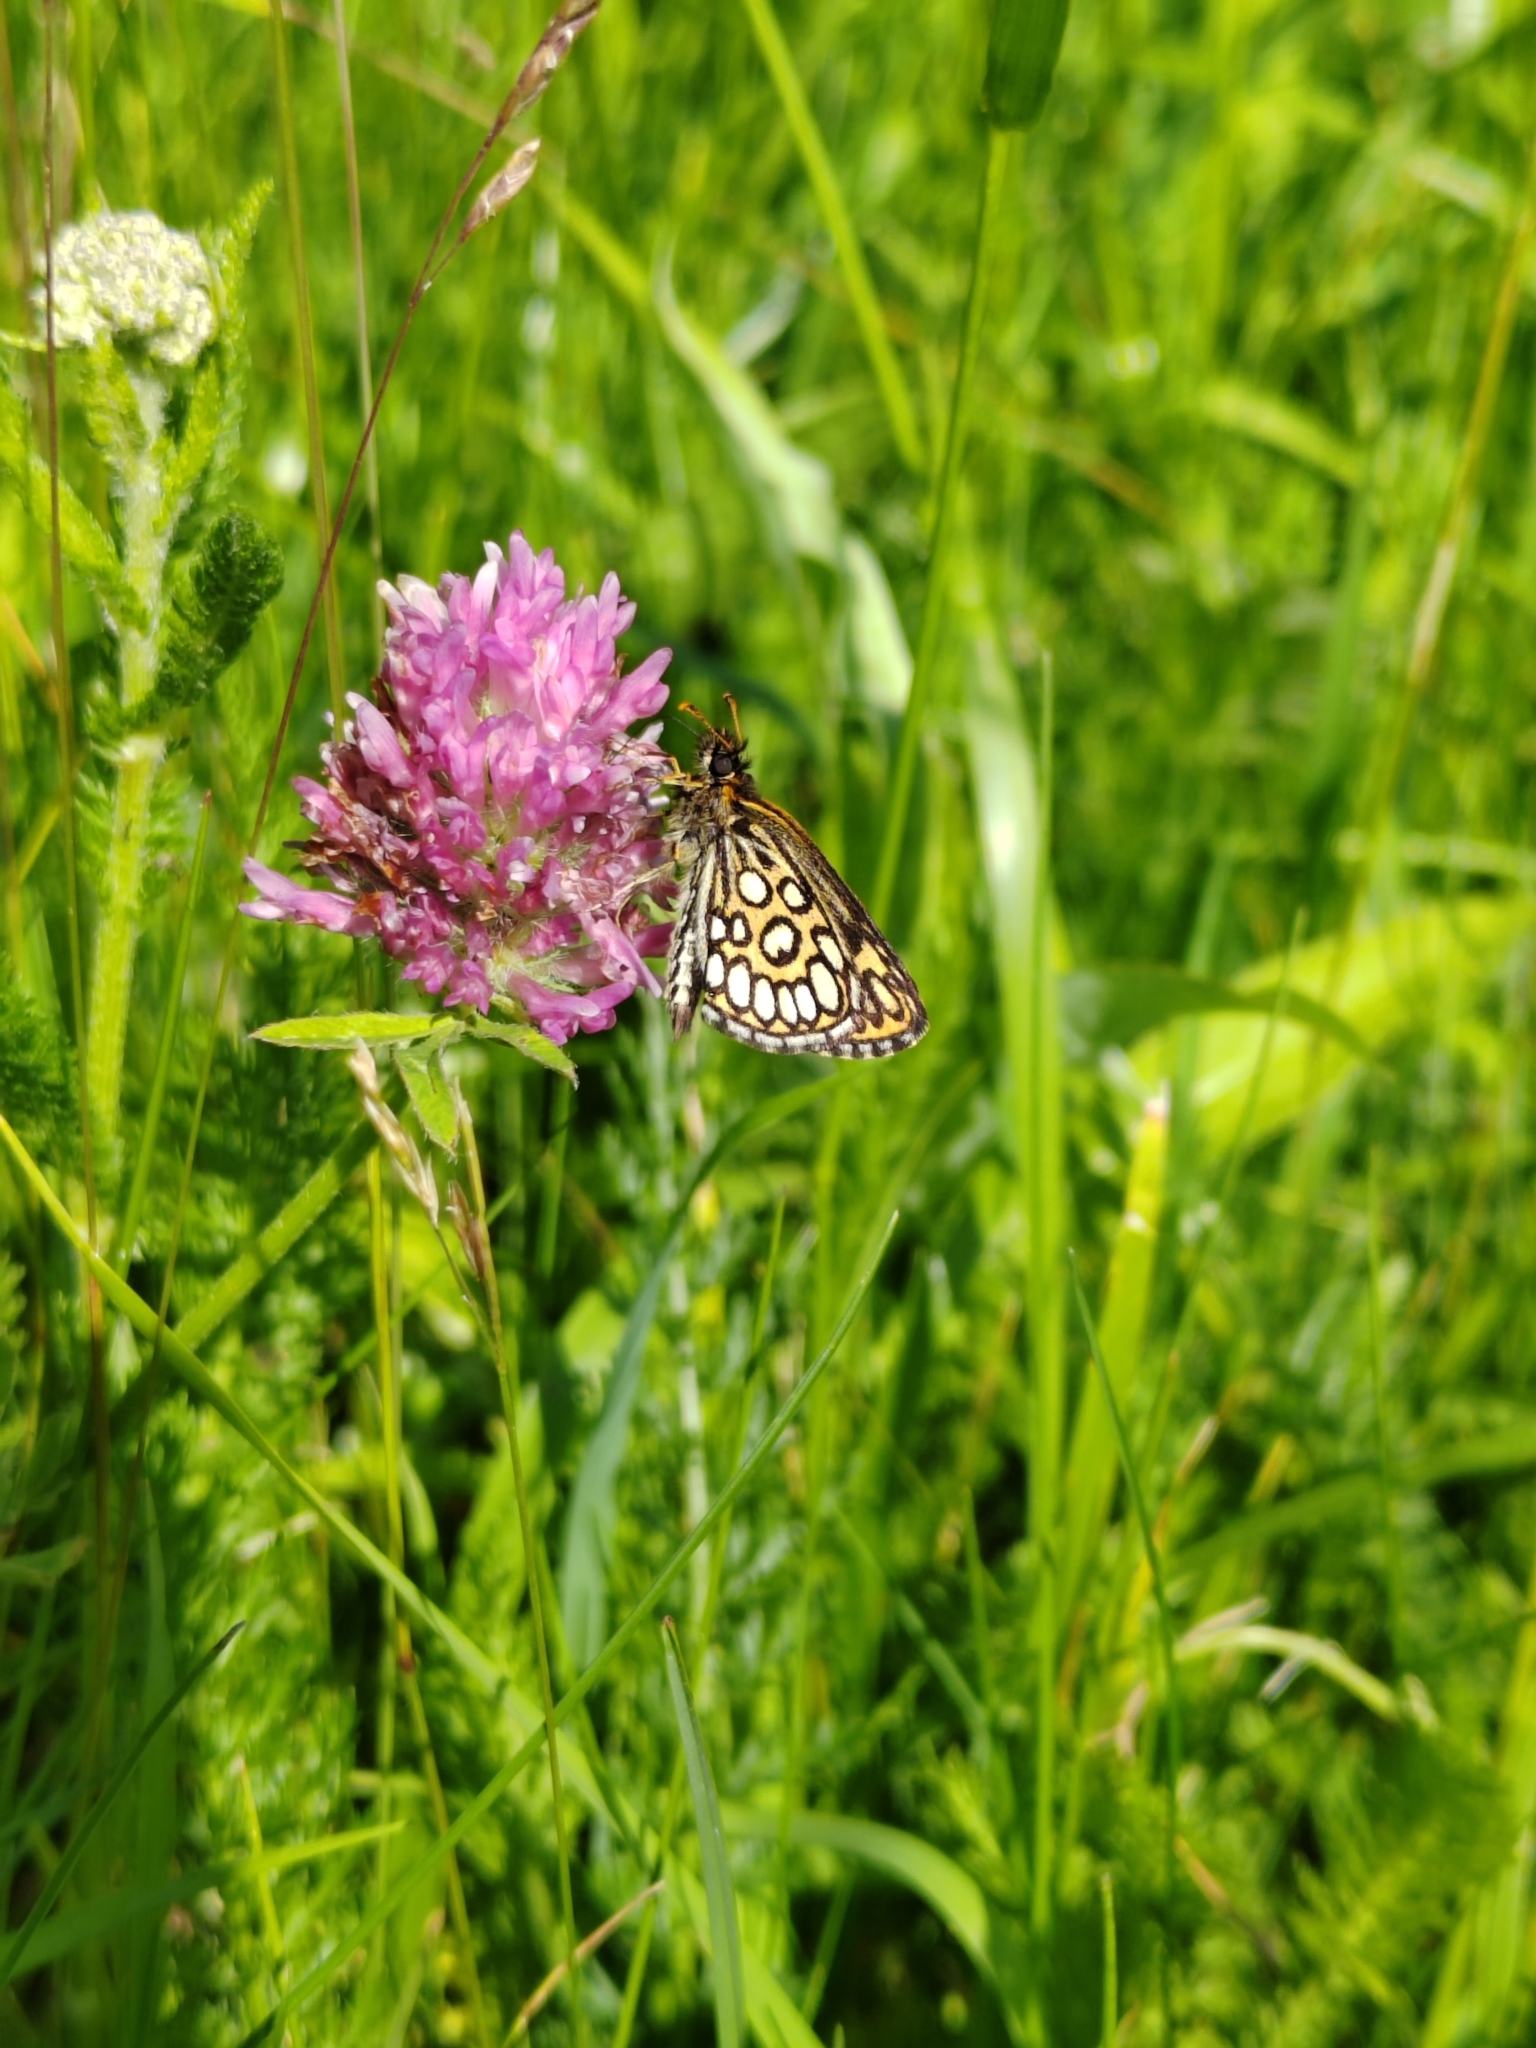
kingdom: Animalia
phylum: Arthropoda
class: Insecta
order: Lepidoptera
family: Hesperiidae
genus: Heteropterus
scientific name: Heteropterus morpheus
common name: Large chequered skipper
